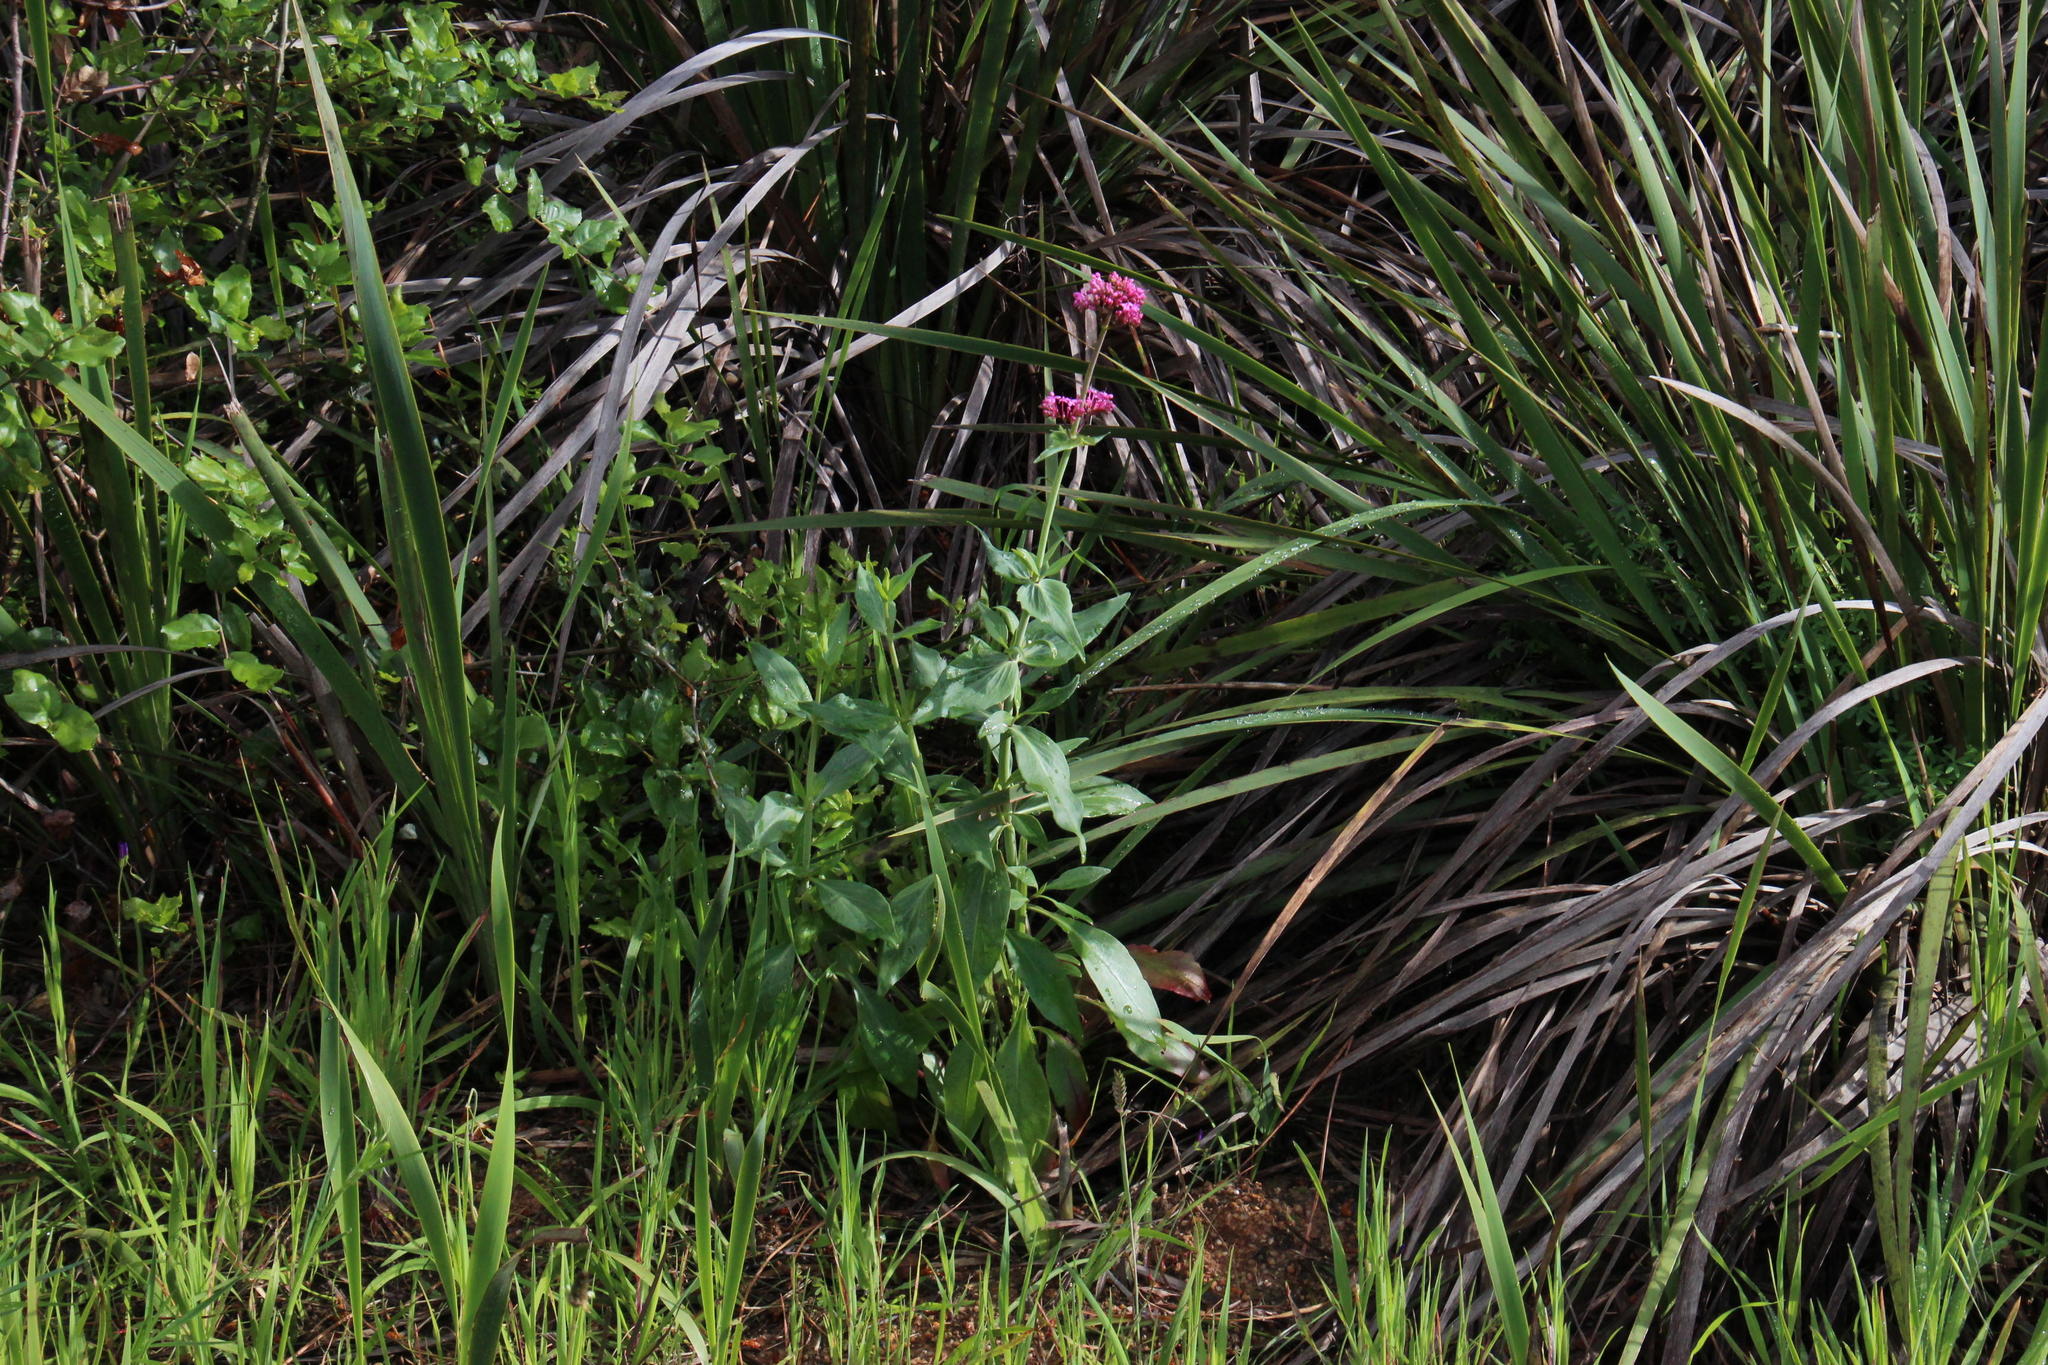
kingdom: Plantae
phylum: Tracheophyta
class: Magnoliopsida
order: Dipsacales
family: Caprifoliaceae
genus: Centranthus
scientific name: Centranthus ruber
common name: Red valerian
